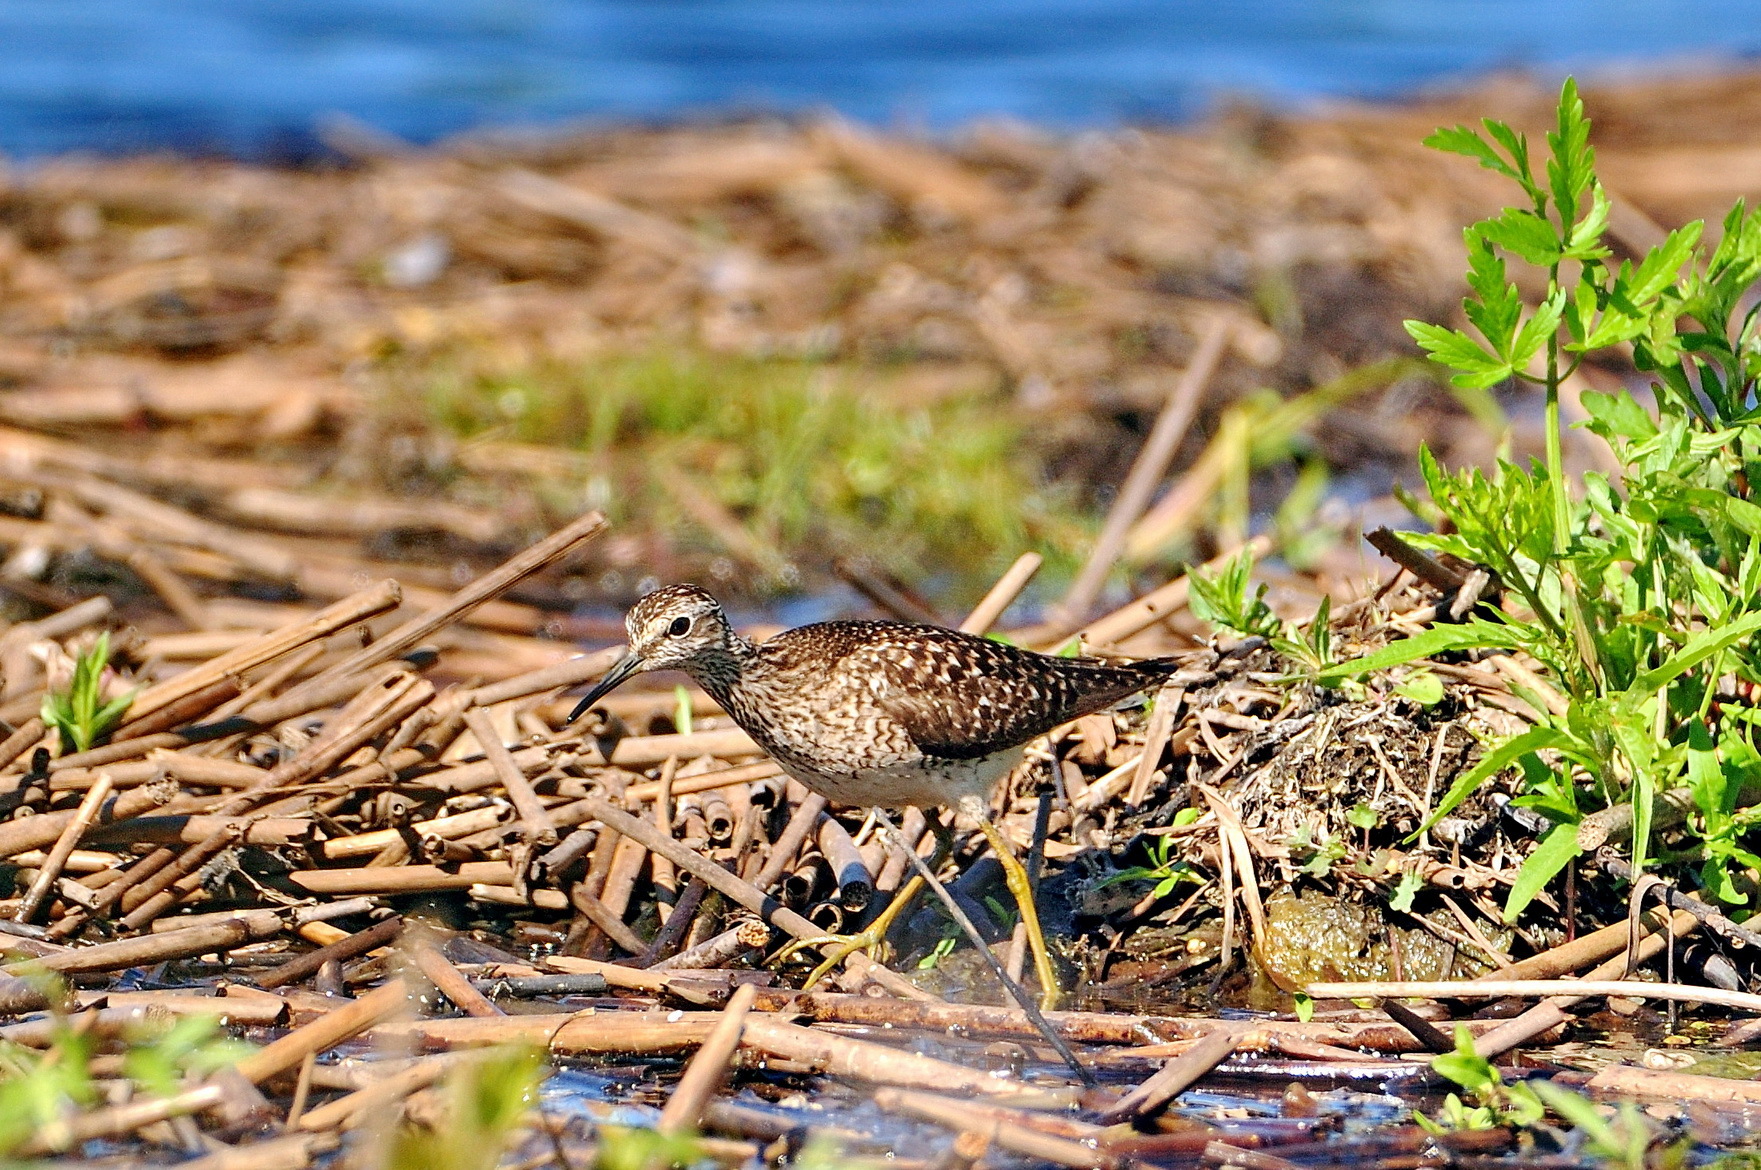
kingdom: Animalia
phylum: Chordata
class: Aves
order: Charadriiformes
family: Scolopacidae
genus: Tringa
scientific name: Tringa glareola
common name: Wood sandpiper
